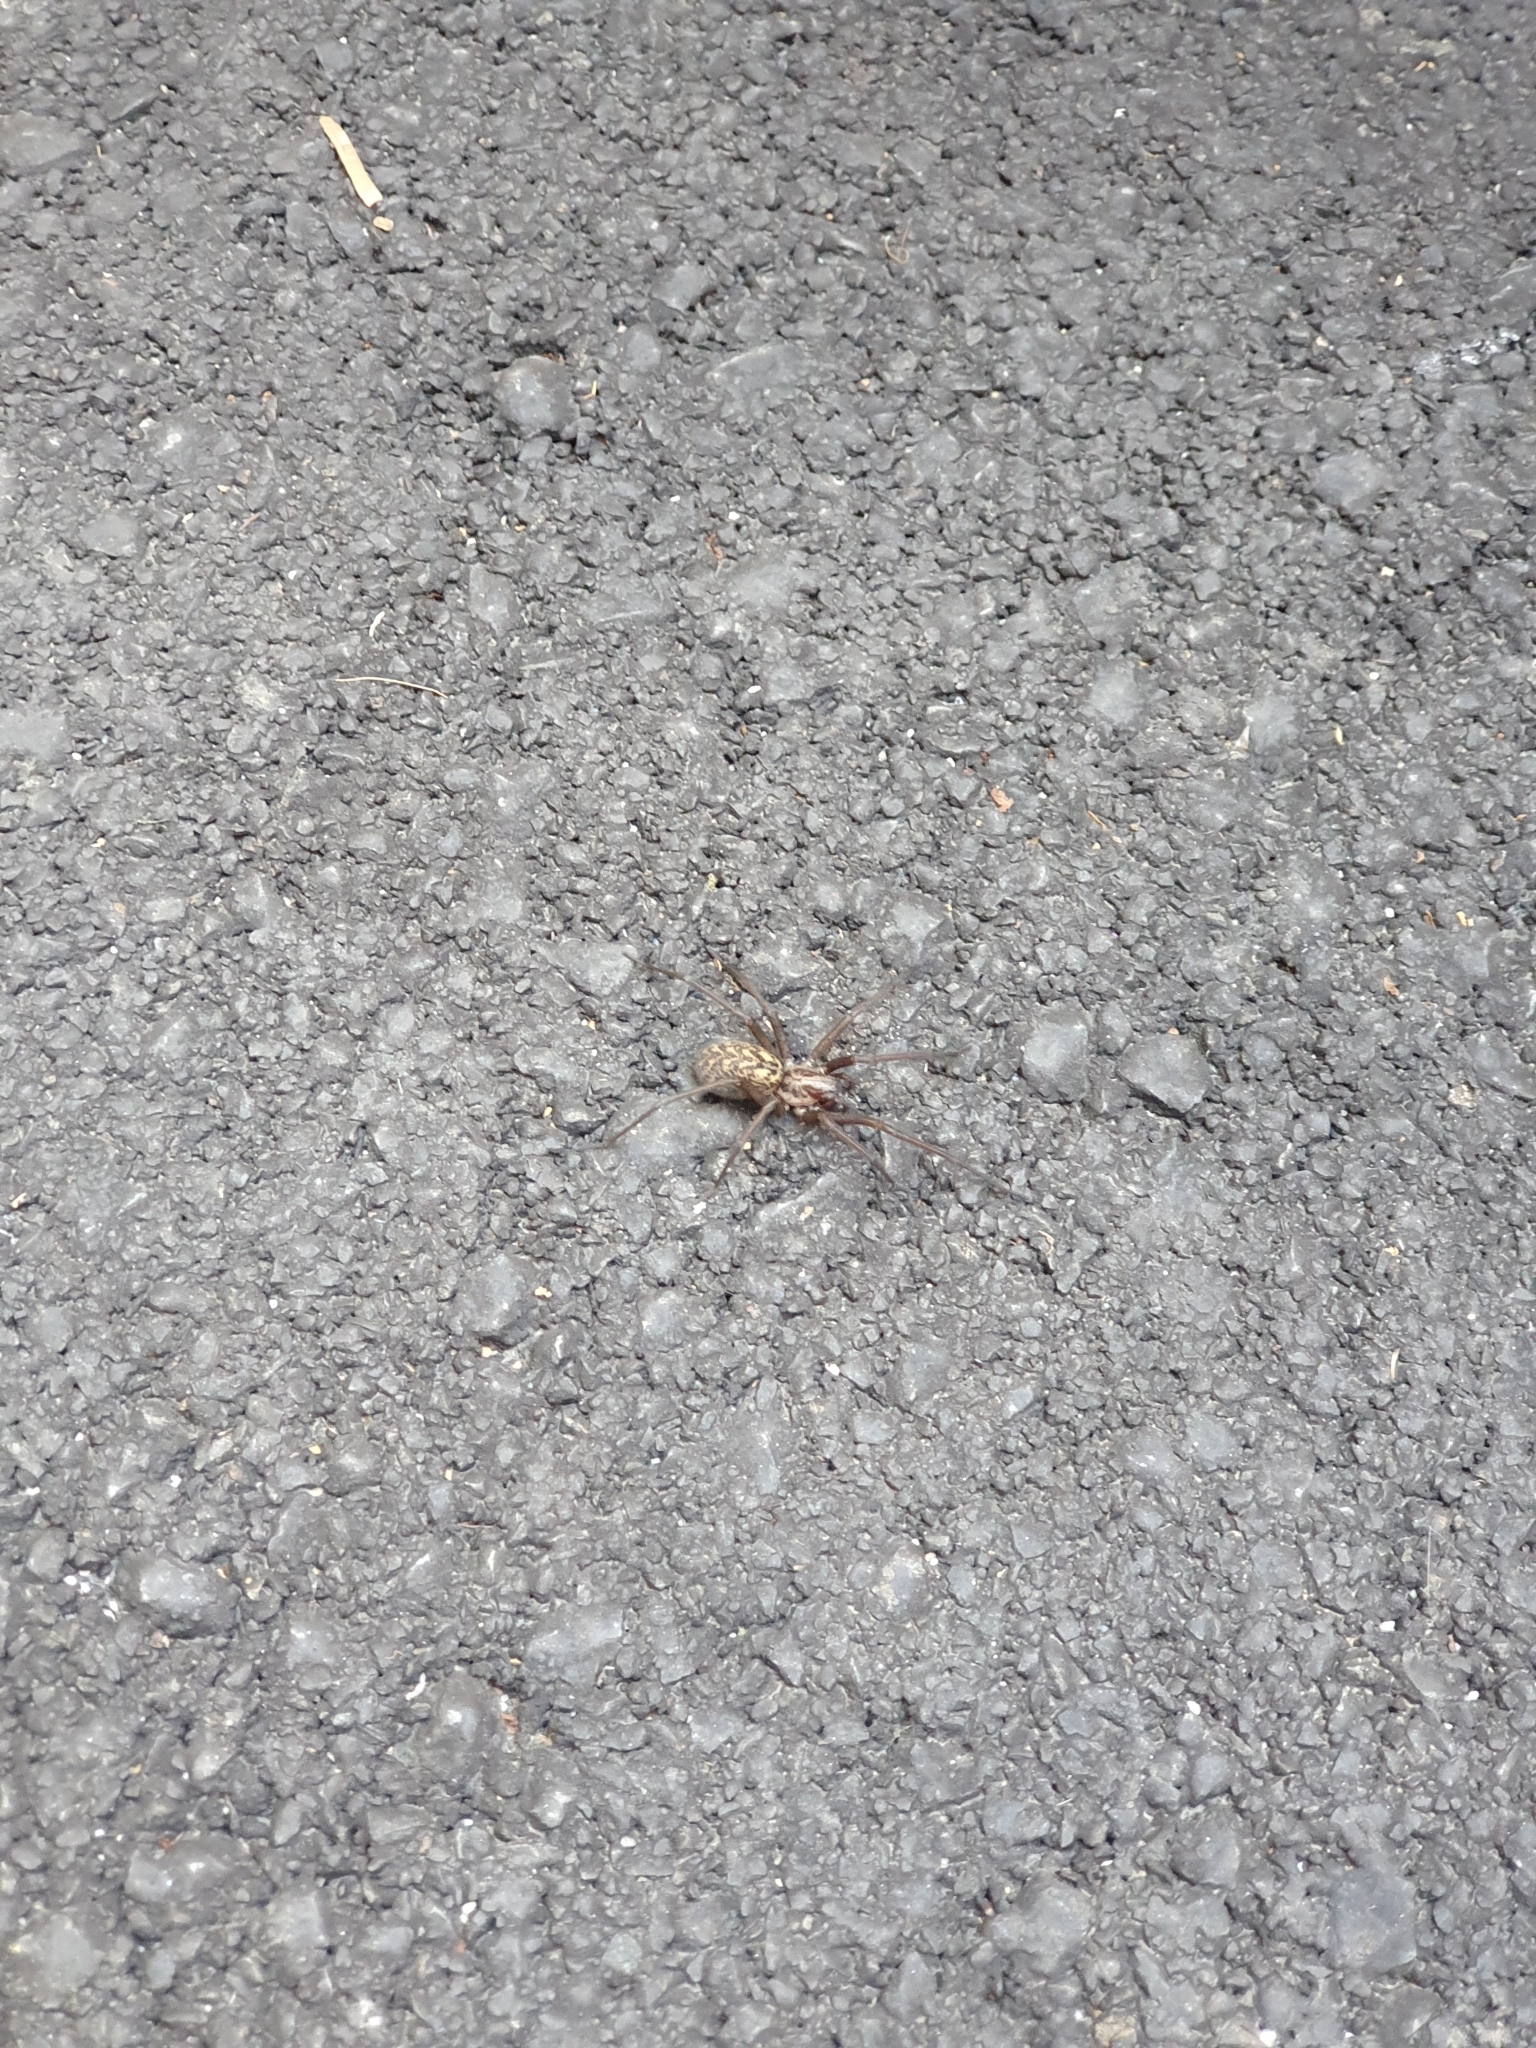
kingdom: Animalia
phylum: Arthropoda
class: Arachnida
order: Araneae
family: Agelenidae
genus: Eratigena
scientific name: Eratigena atrica
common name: Giant house spider
